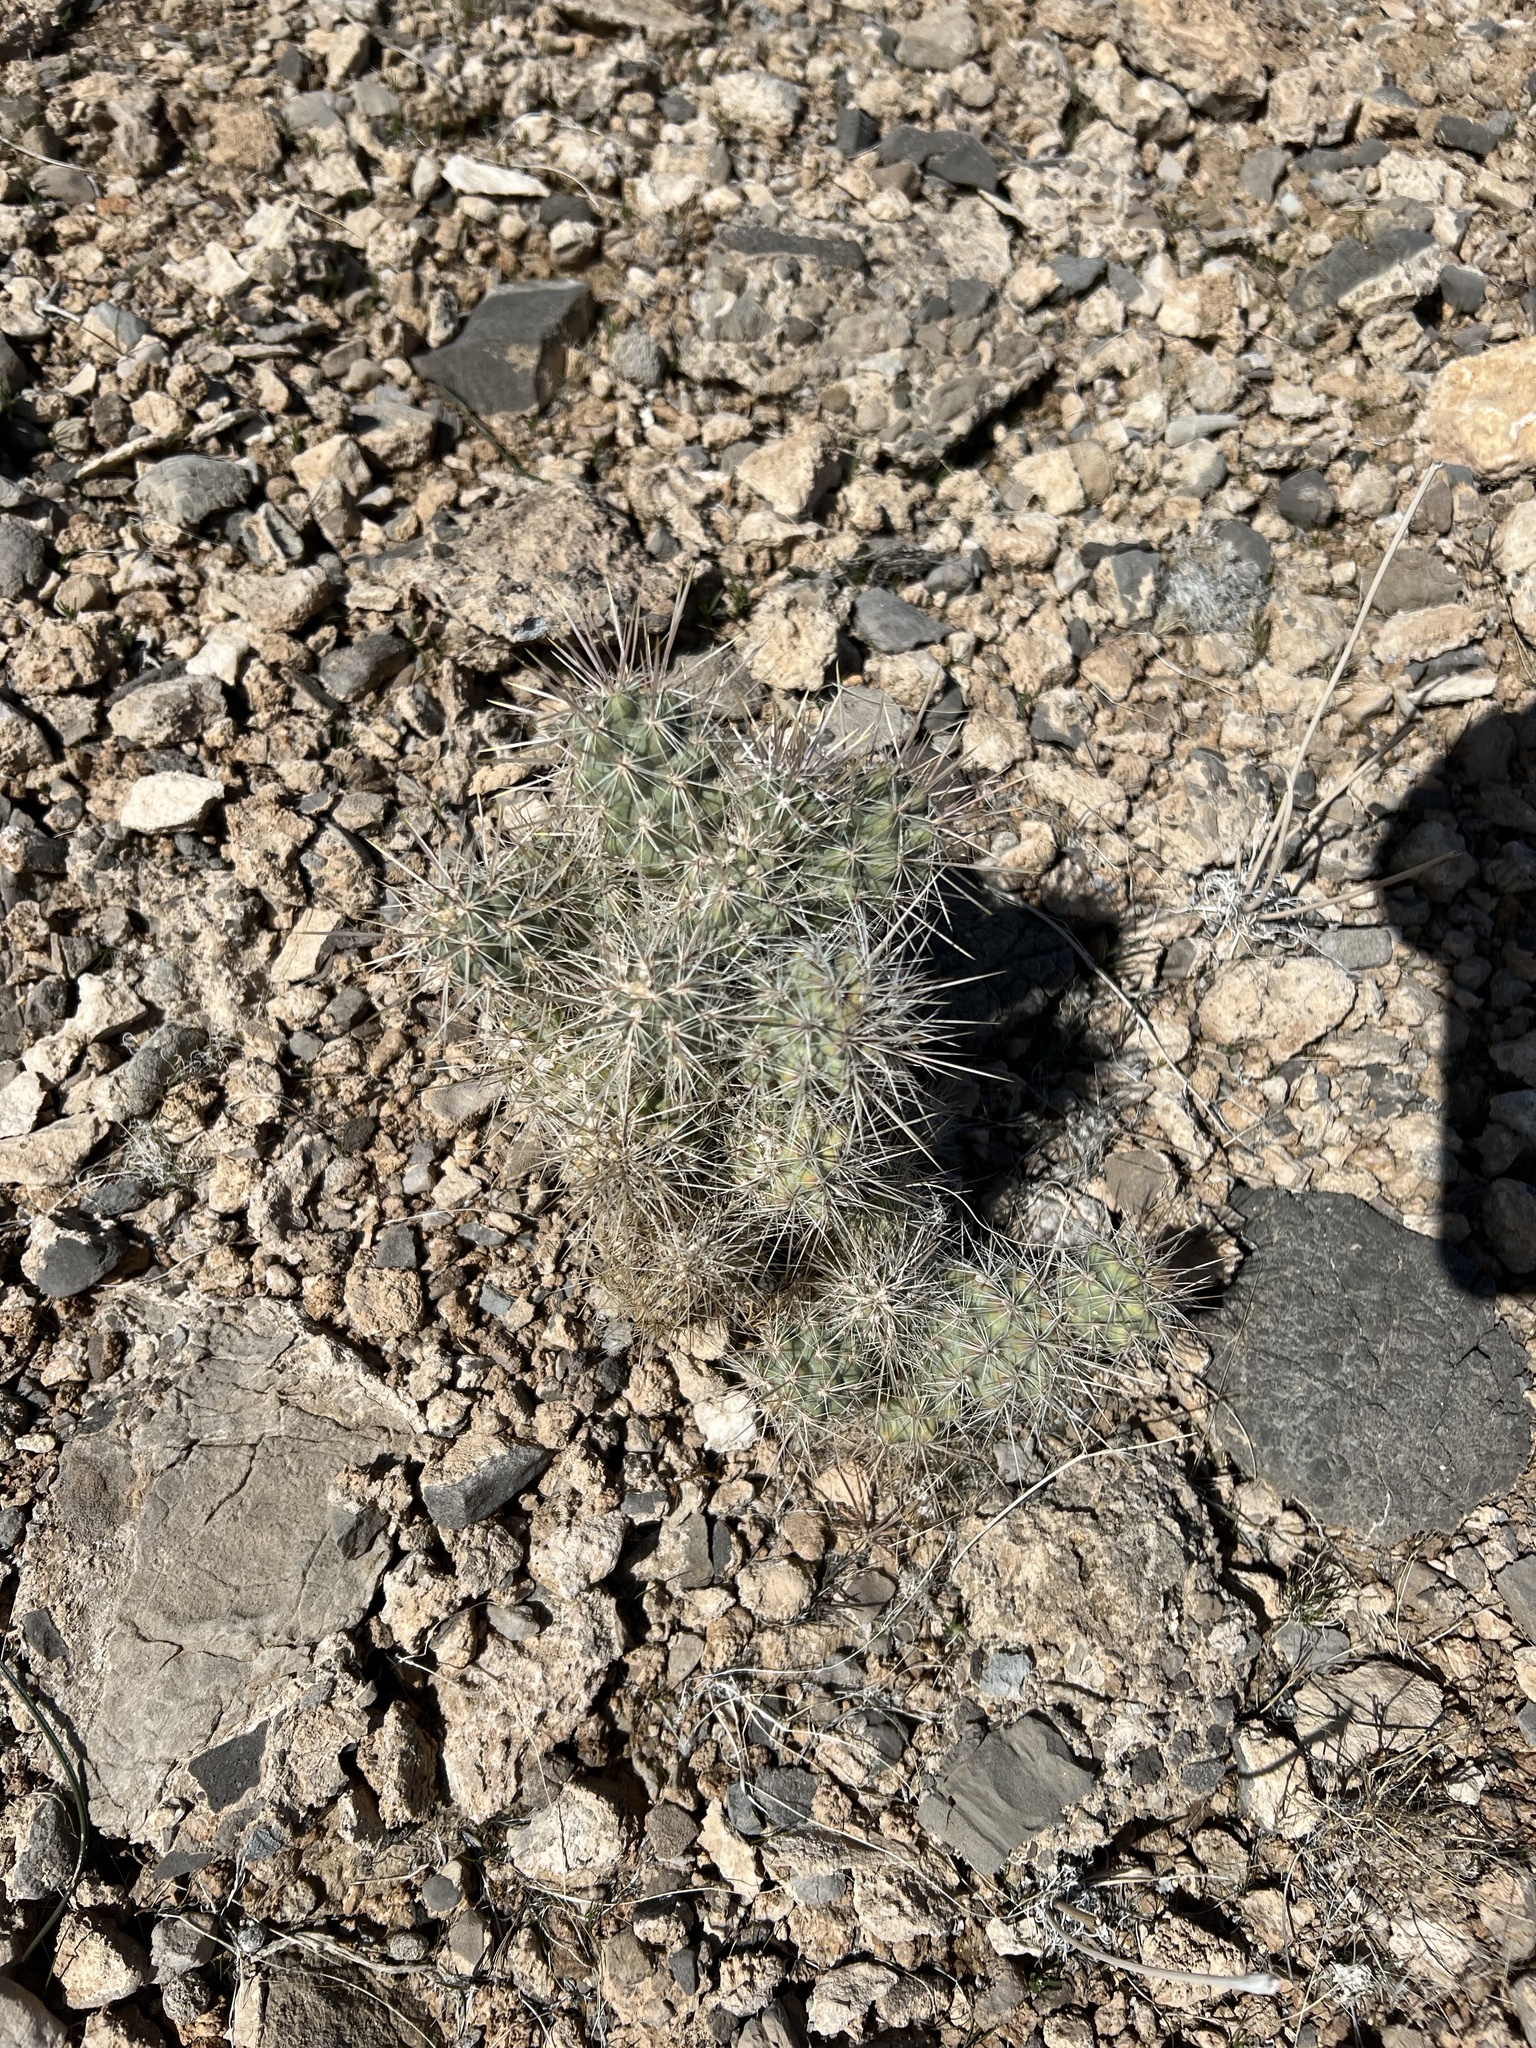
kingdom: Plantae
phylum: Tracheophyta
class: Magnoliopsida
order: Caryophyllales
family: Cactaceae
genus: Cylindropuntia
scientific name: Cylindropuntia echinocarpa
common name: Ground cholla
